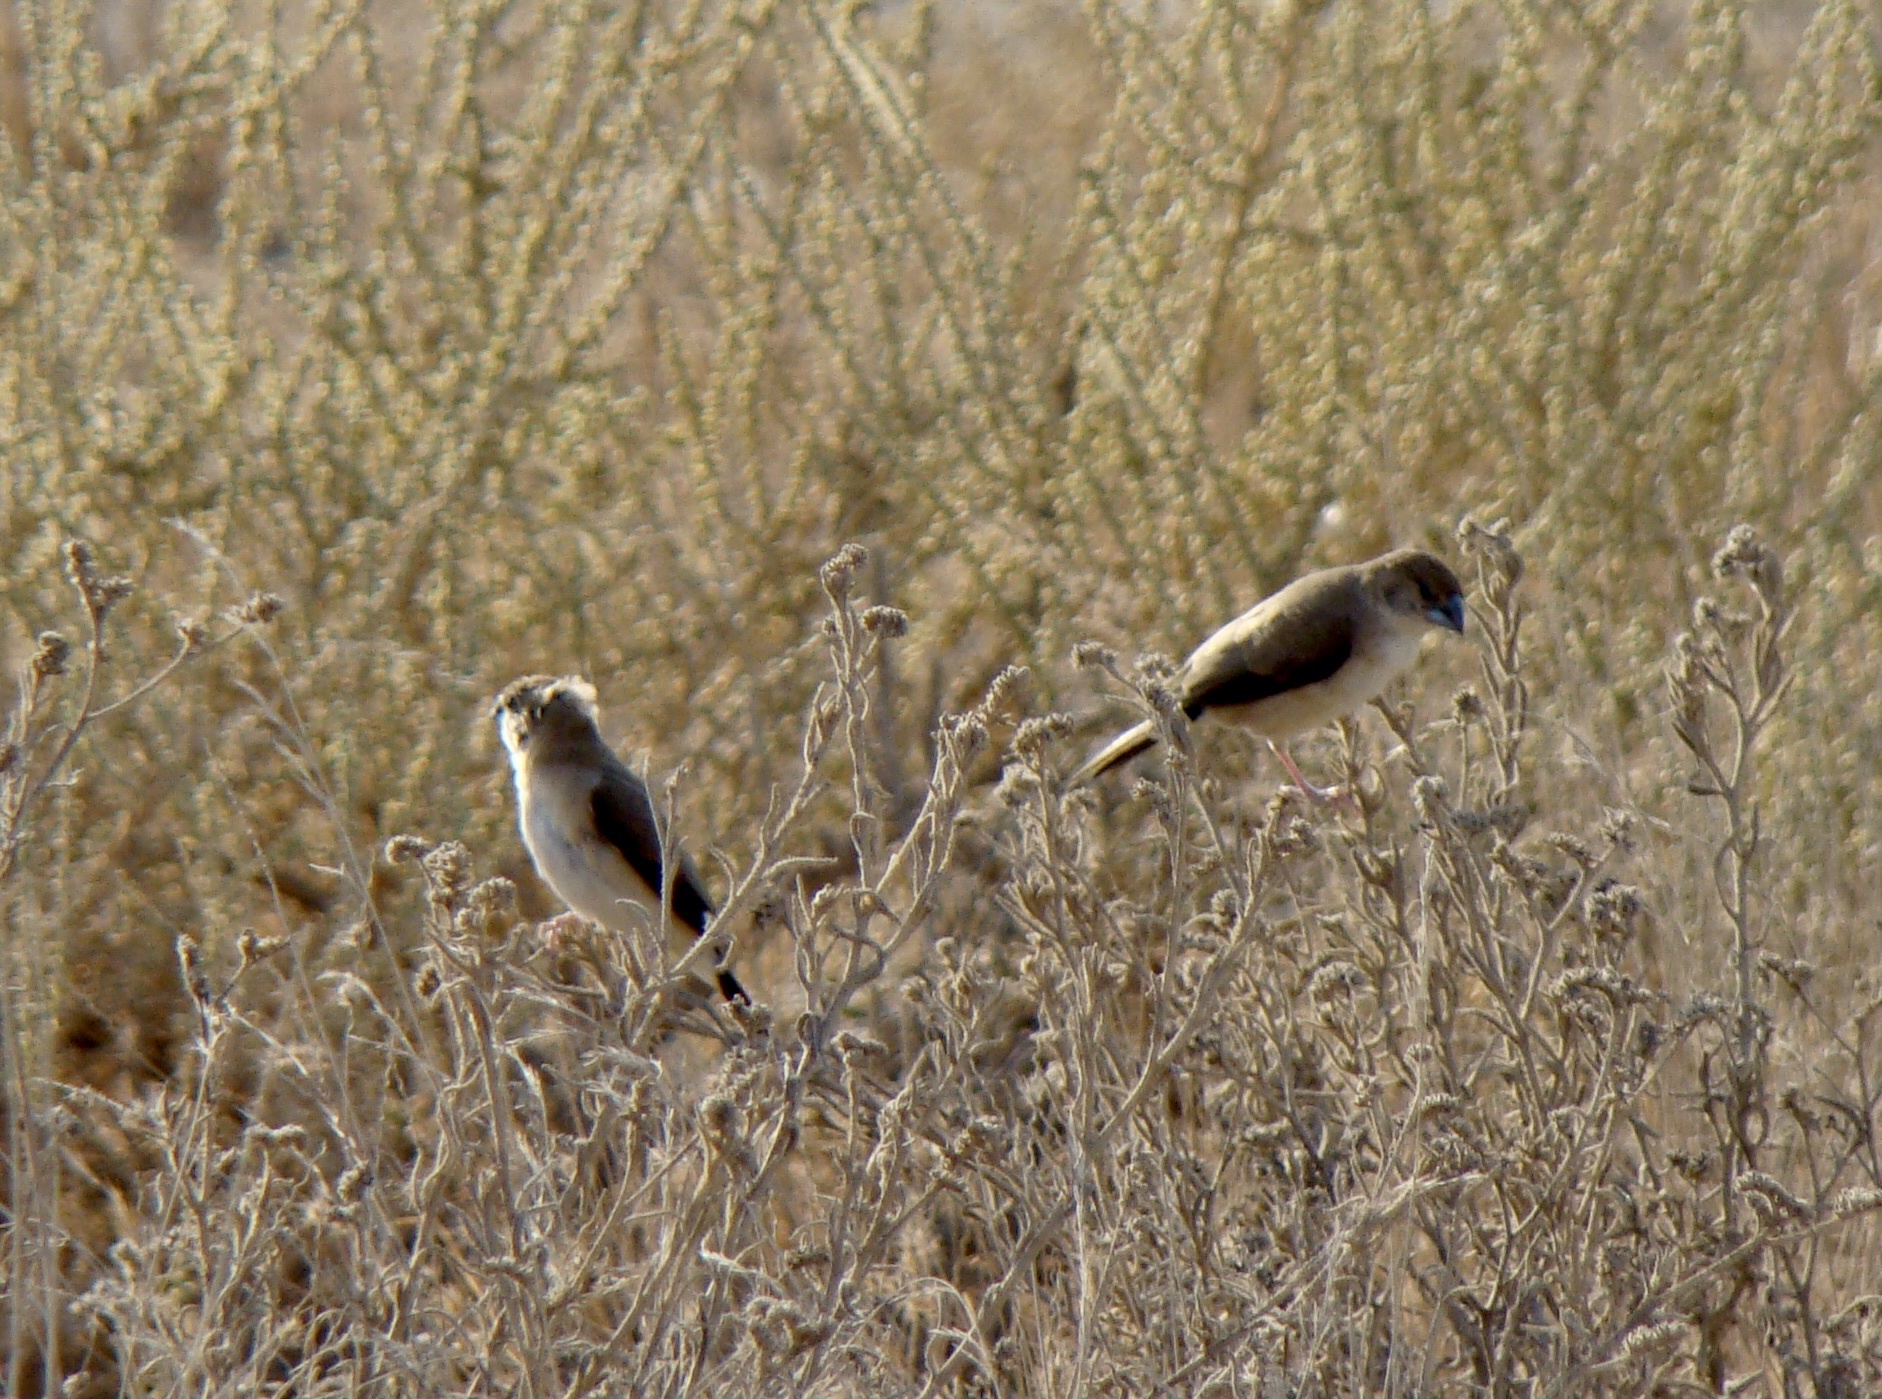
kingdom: Animalia
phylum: Chordata
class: Aves
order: Passeriformes
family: Estrildidae
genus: Euodice
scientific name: Euodice malabarica
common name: Indian silverbill
